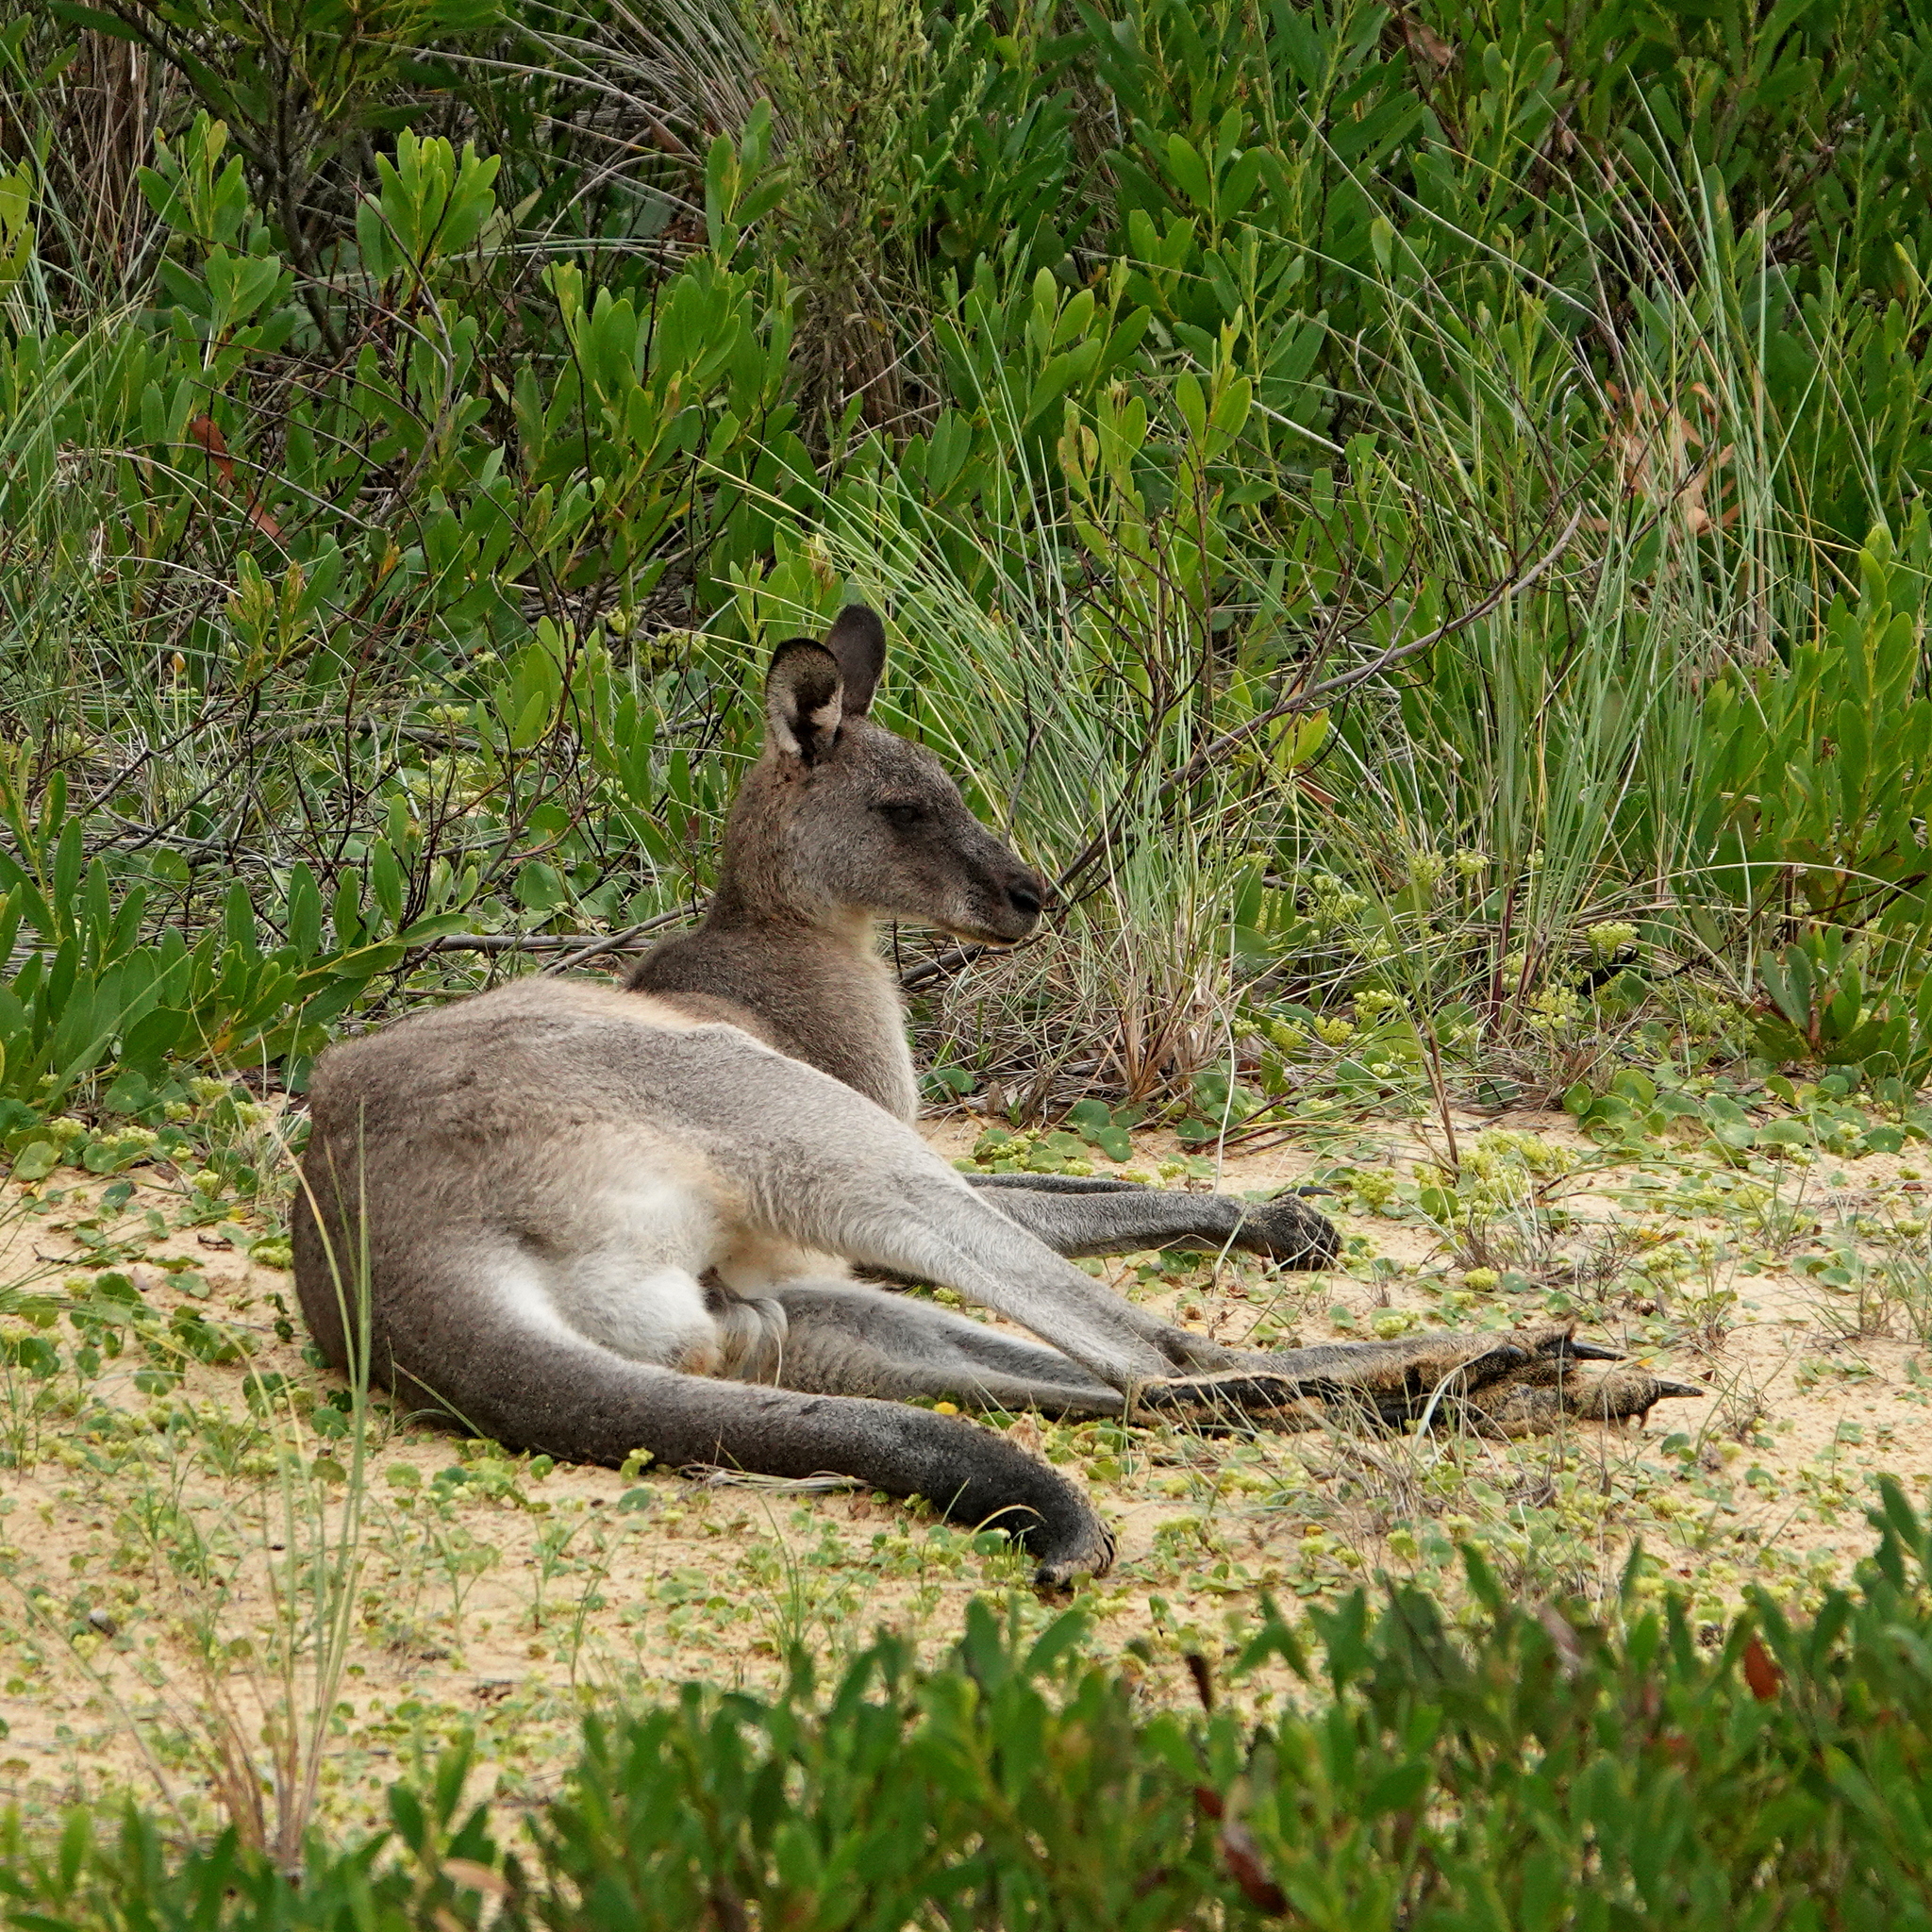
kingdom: Animalia
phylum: Chordata
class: Mammalia
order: Diprotodontia
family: Macropodidae
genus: Macropus
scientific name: Macropus giganteus
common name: Eastern grey kangaroo
